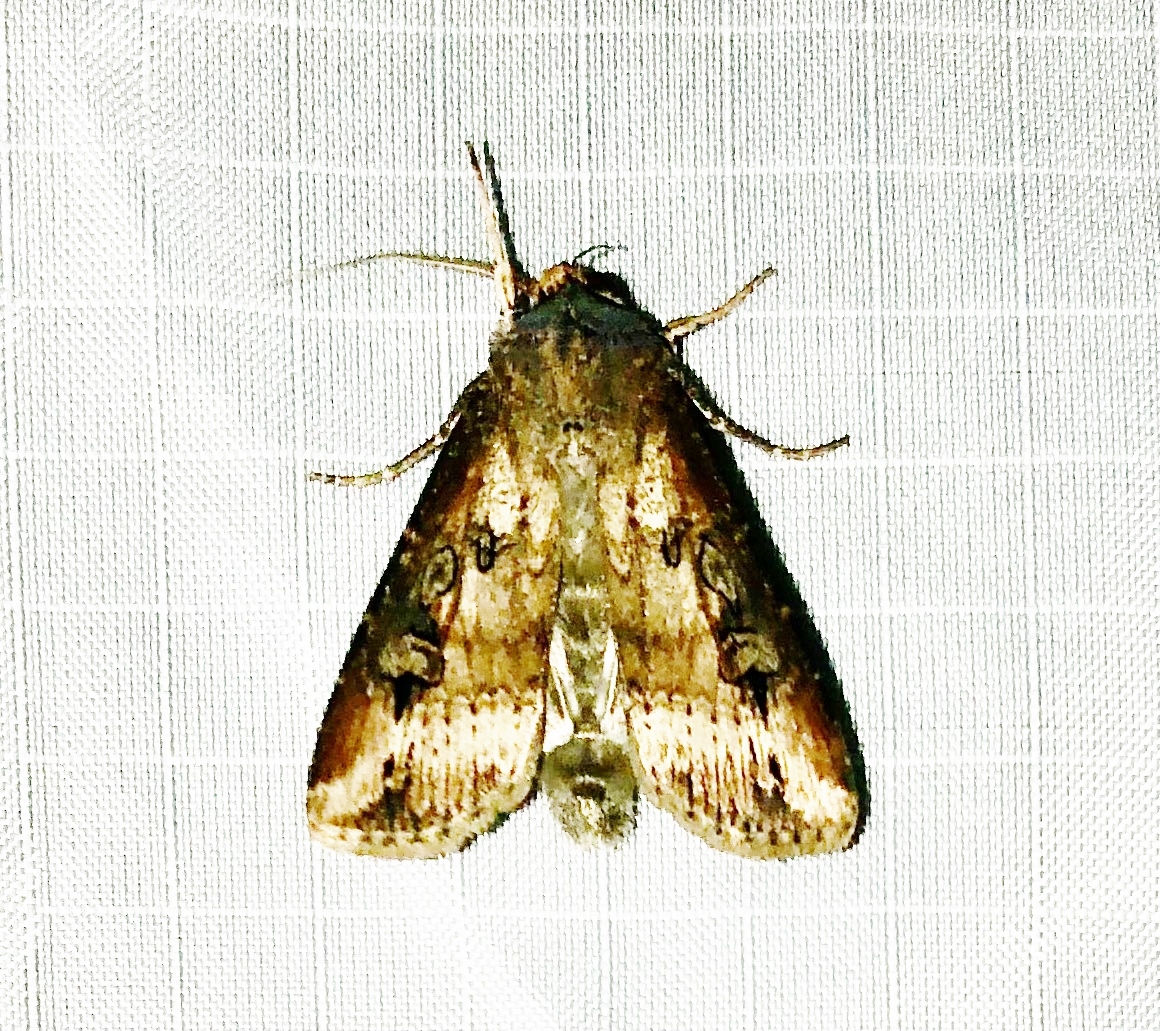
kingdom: Animalia
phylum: Arthropoda
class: Insecta
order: Lepidoptera
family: Noctuidae
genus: Agrotis
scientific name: Agrotis ipsilon
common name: Dark sword-grass
